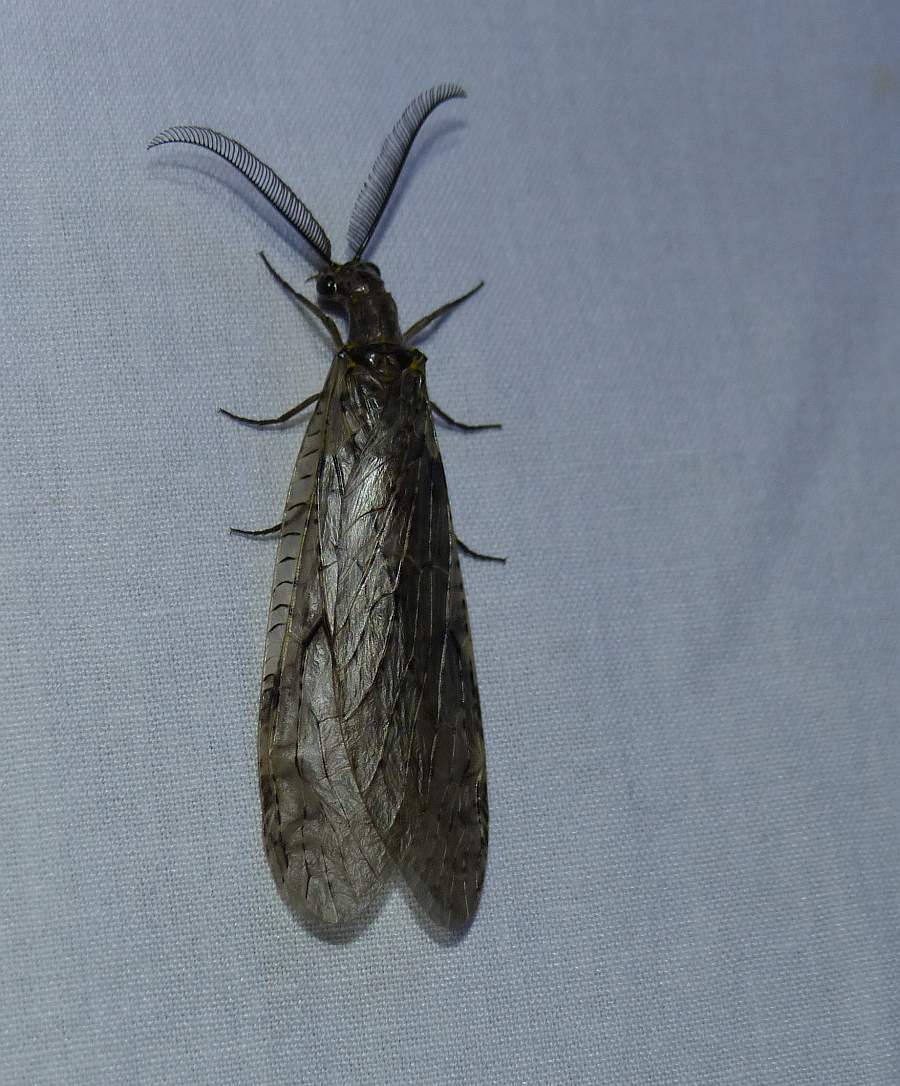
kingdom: Animalia
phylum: Arthropoda
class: Insecta
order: Megaloptera
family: Corydalidae
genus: Chauliodes
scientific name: Chauliodes rastricornis
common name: Spring fishfly
